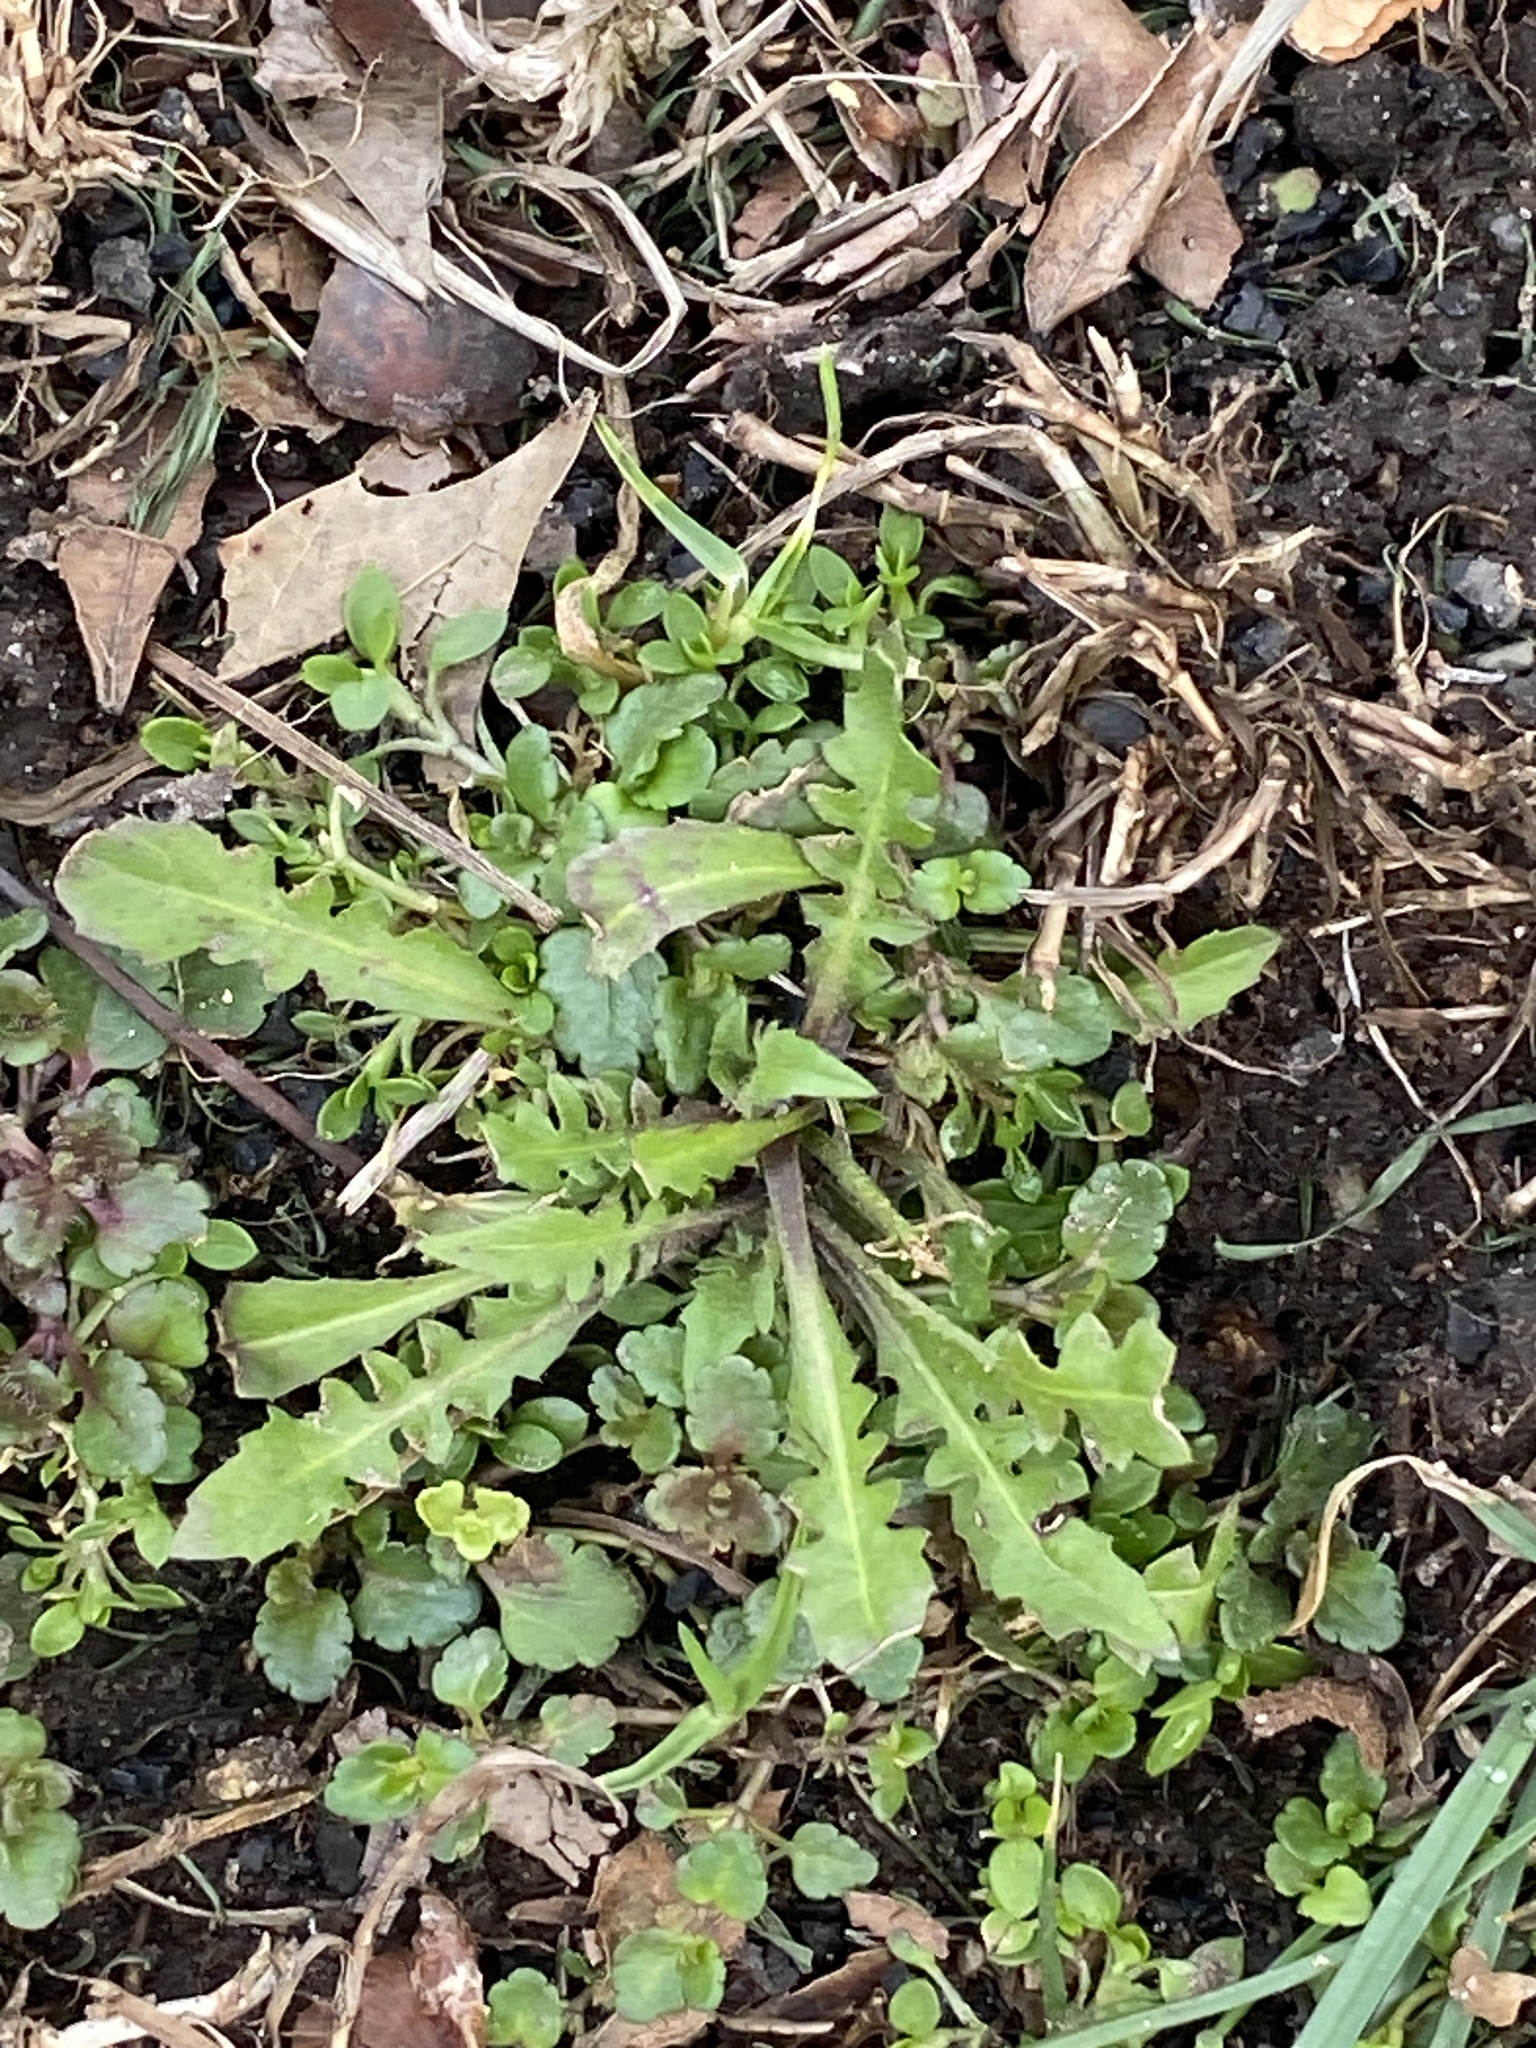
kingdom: Plantae
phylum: Tracheophyta
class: Magnoliopsida
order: Brassicales
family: Brassicaceae
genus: Capsella
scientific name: Capsella bursa-pastoris
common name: Shepherd's purse
